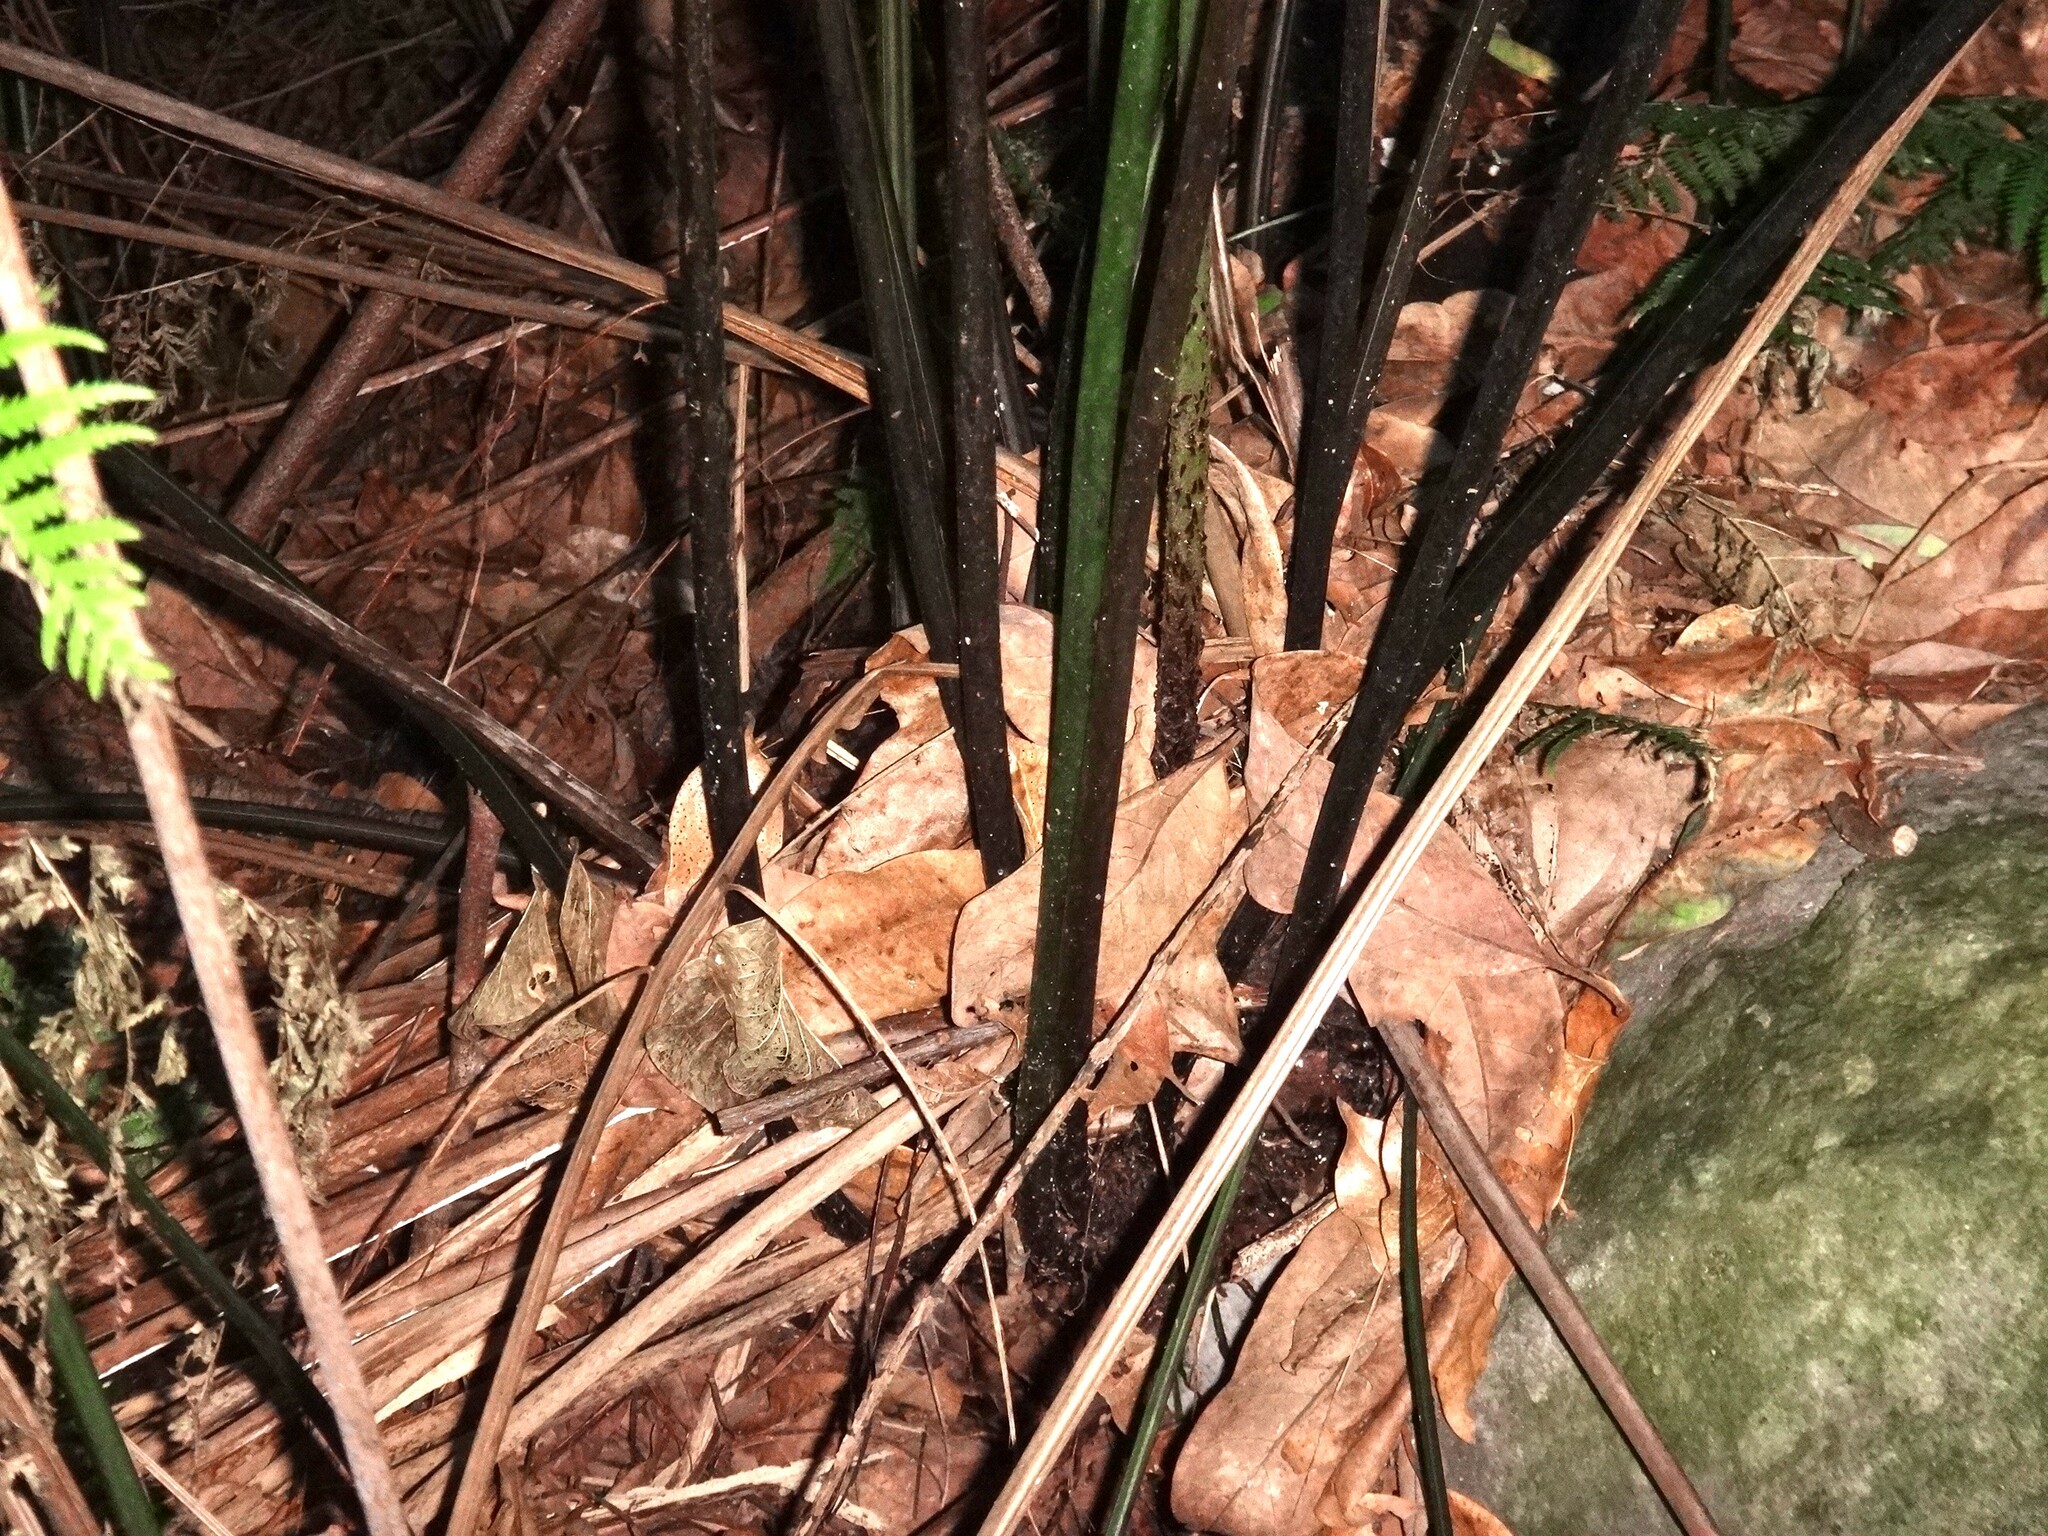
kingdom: Plantae
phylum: Tracheophyta
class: Polypodiopsida
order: Polypodiales
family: Athyriaceae
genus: Diplazium
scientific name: Diplazium caudatum
